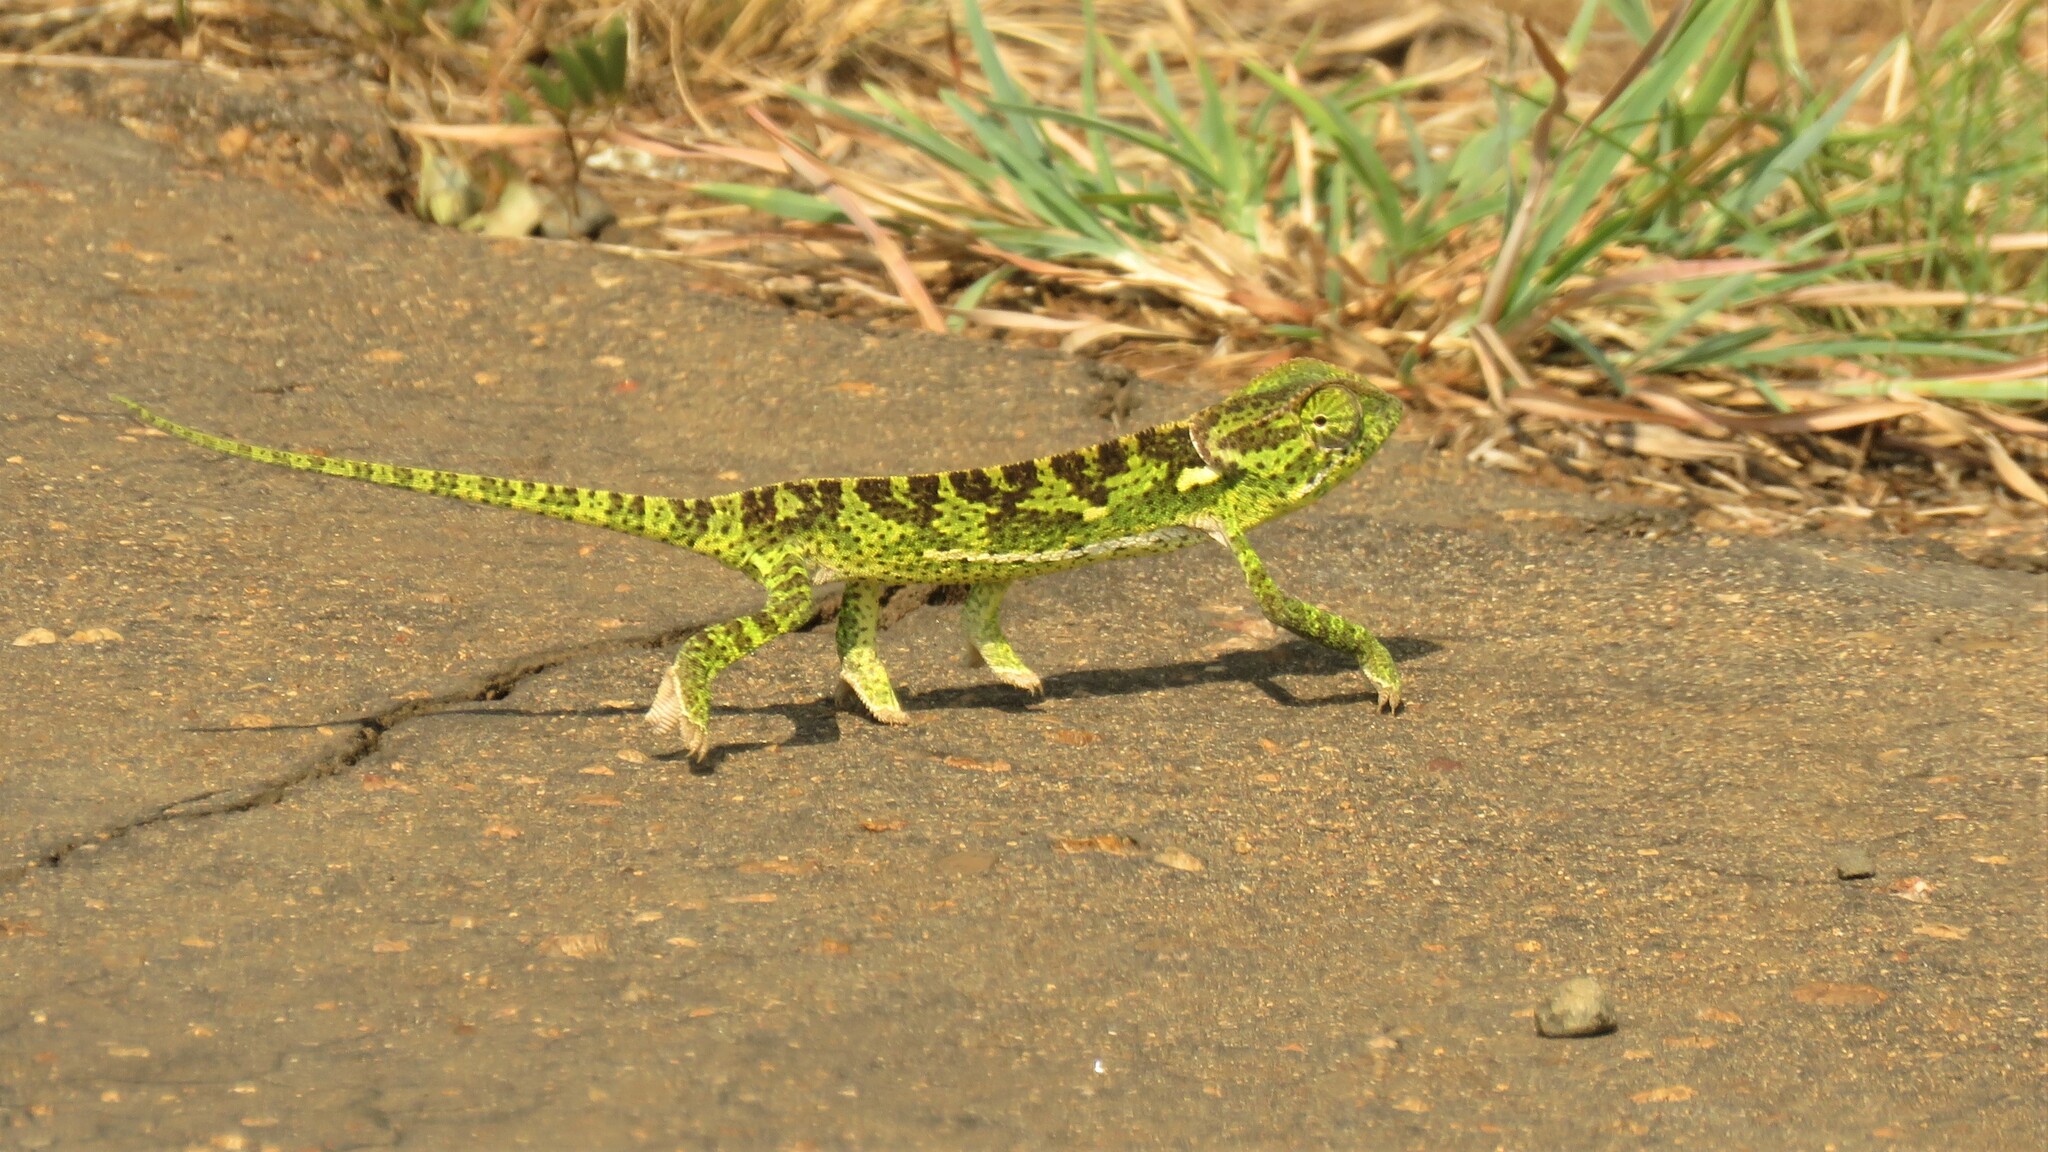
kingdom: Animalia
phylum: Chordata
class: Squamata
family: Chamaeleonidae
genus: Chamaeleo
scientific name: Chamaeleo dilepis
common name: Flapneck chameleon
